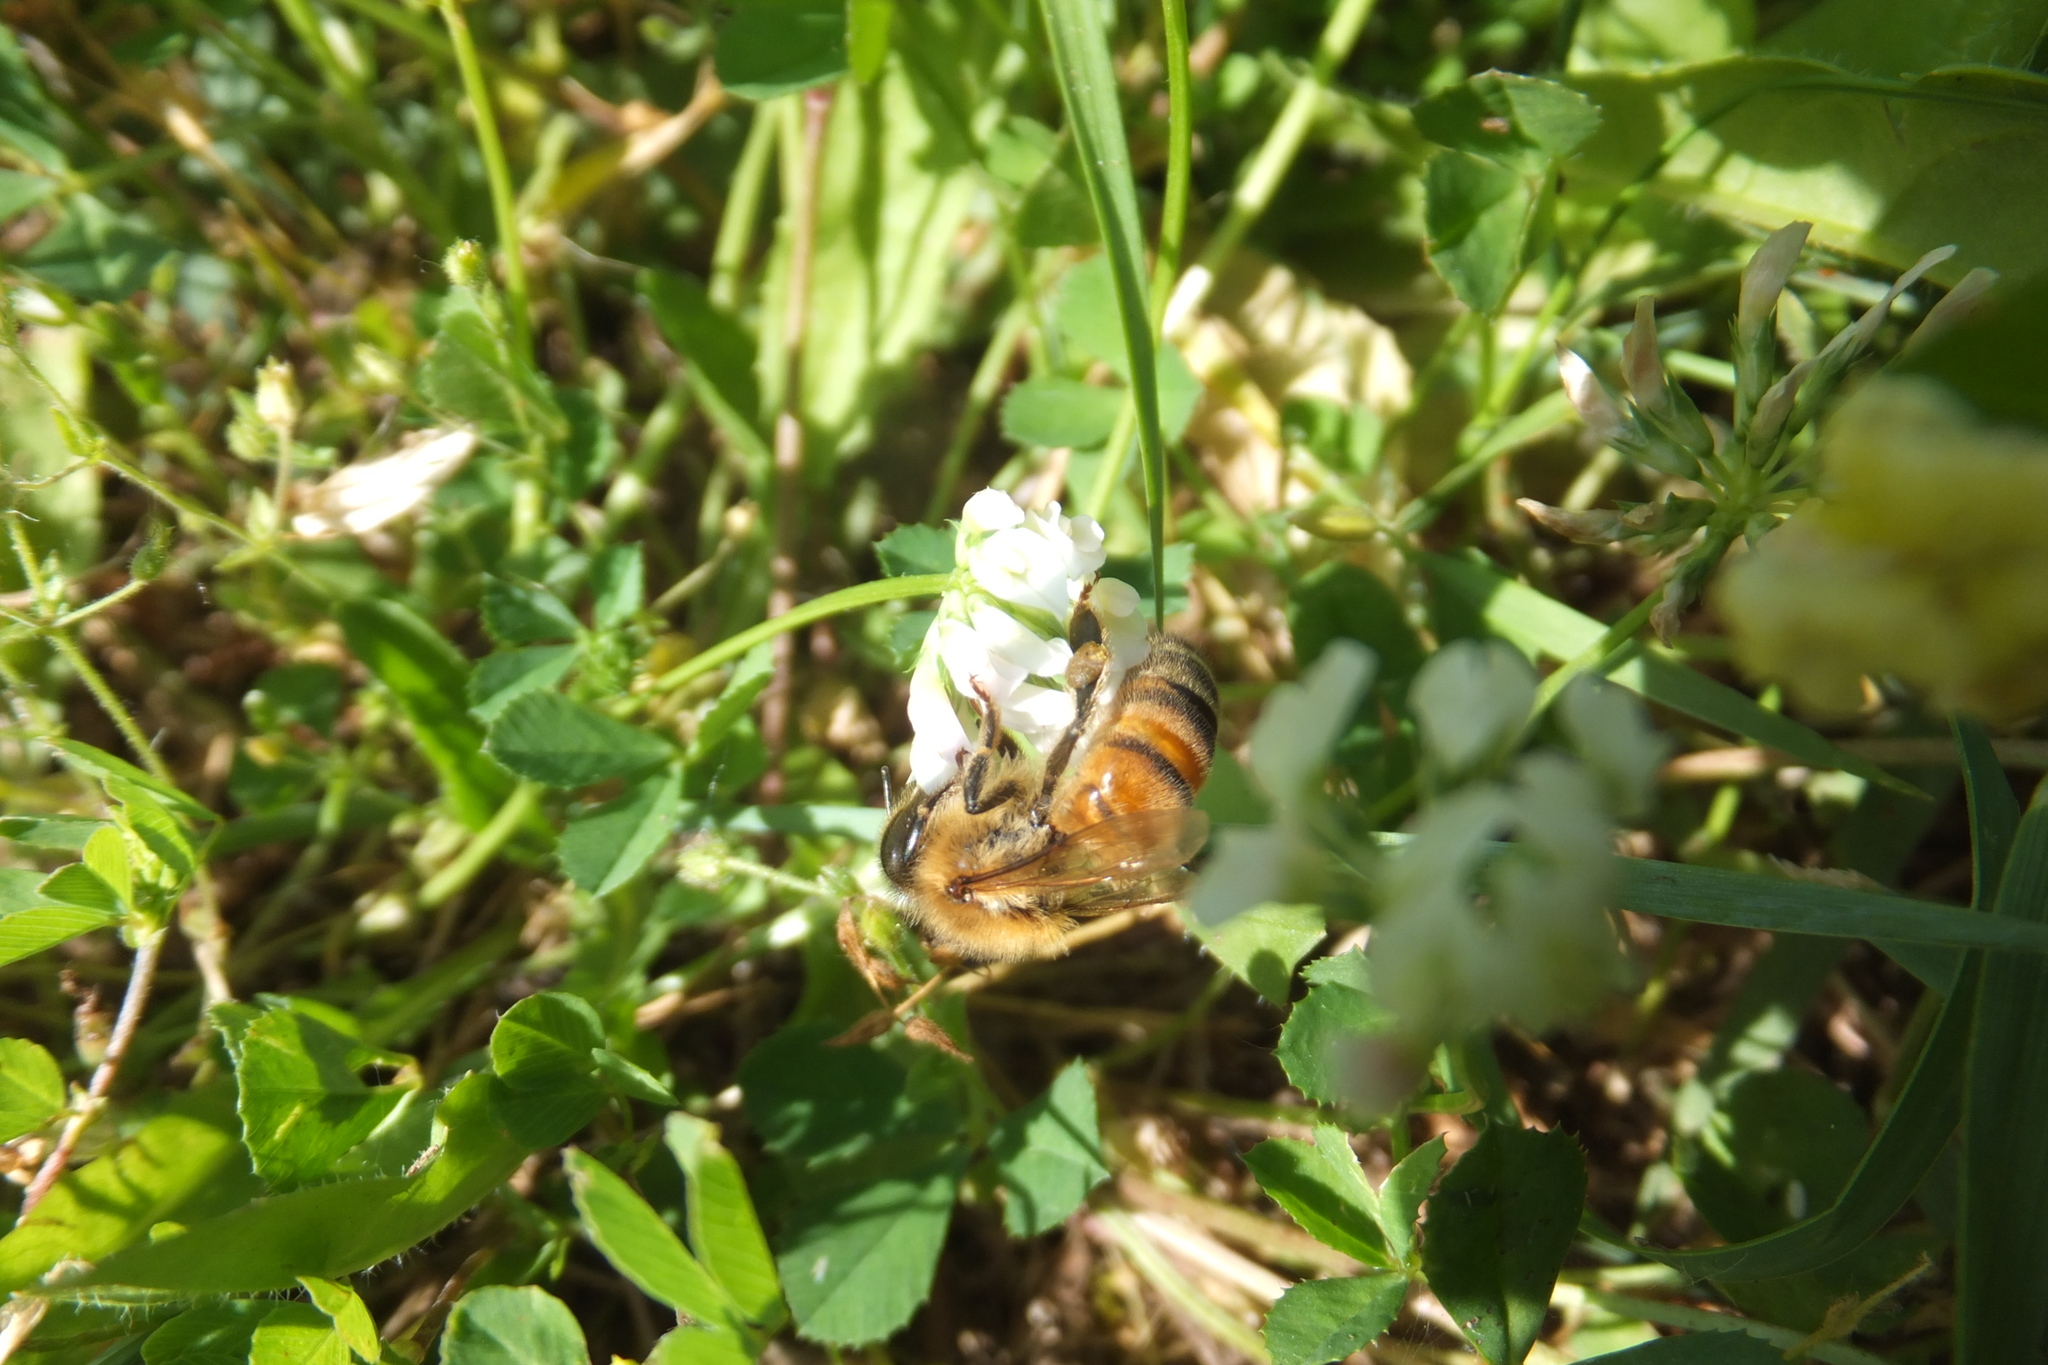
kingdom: Animalia
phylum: Arthropoda
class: Insecta
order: Hymenoptera
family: Apidae
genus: Apis
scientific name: Apis mellifera
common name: Honey bee
